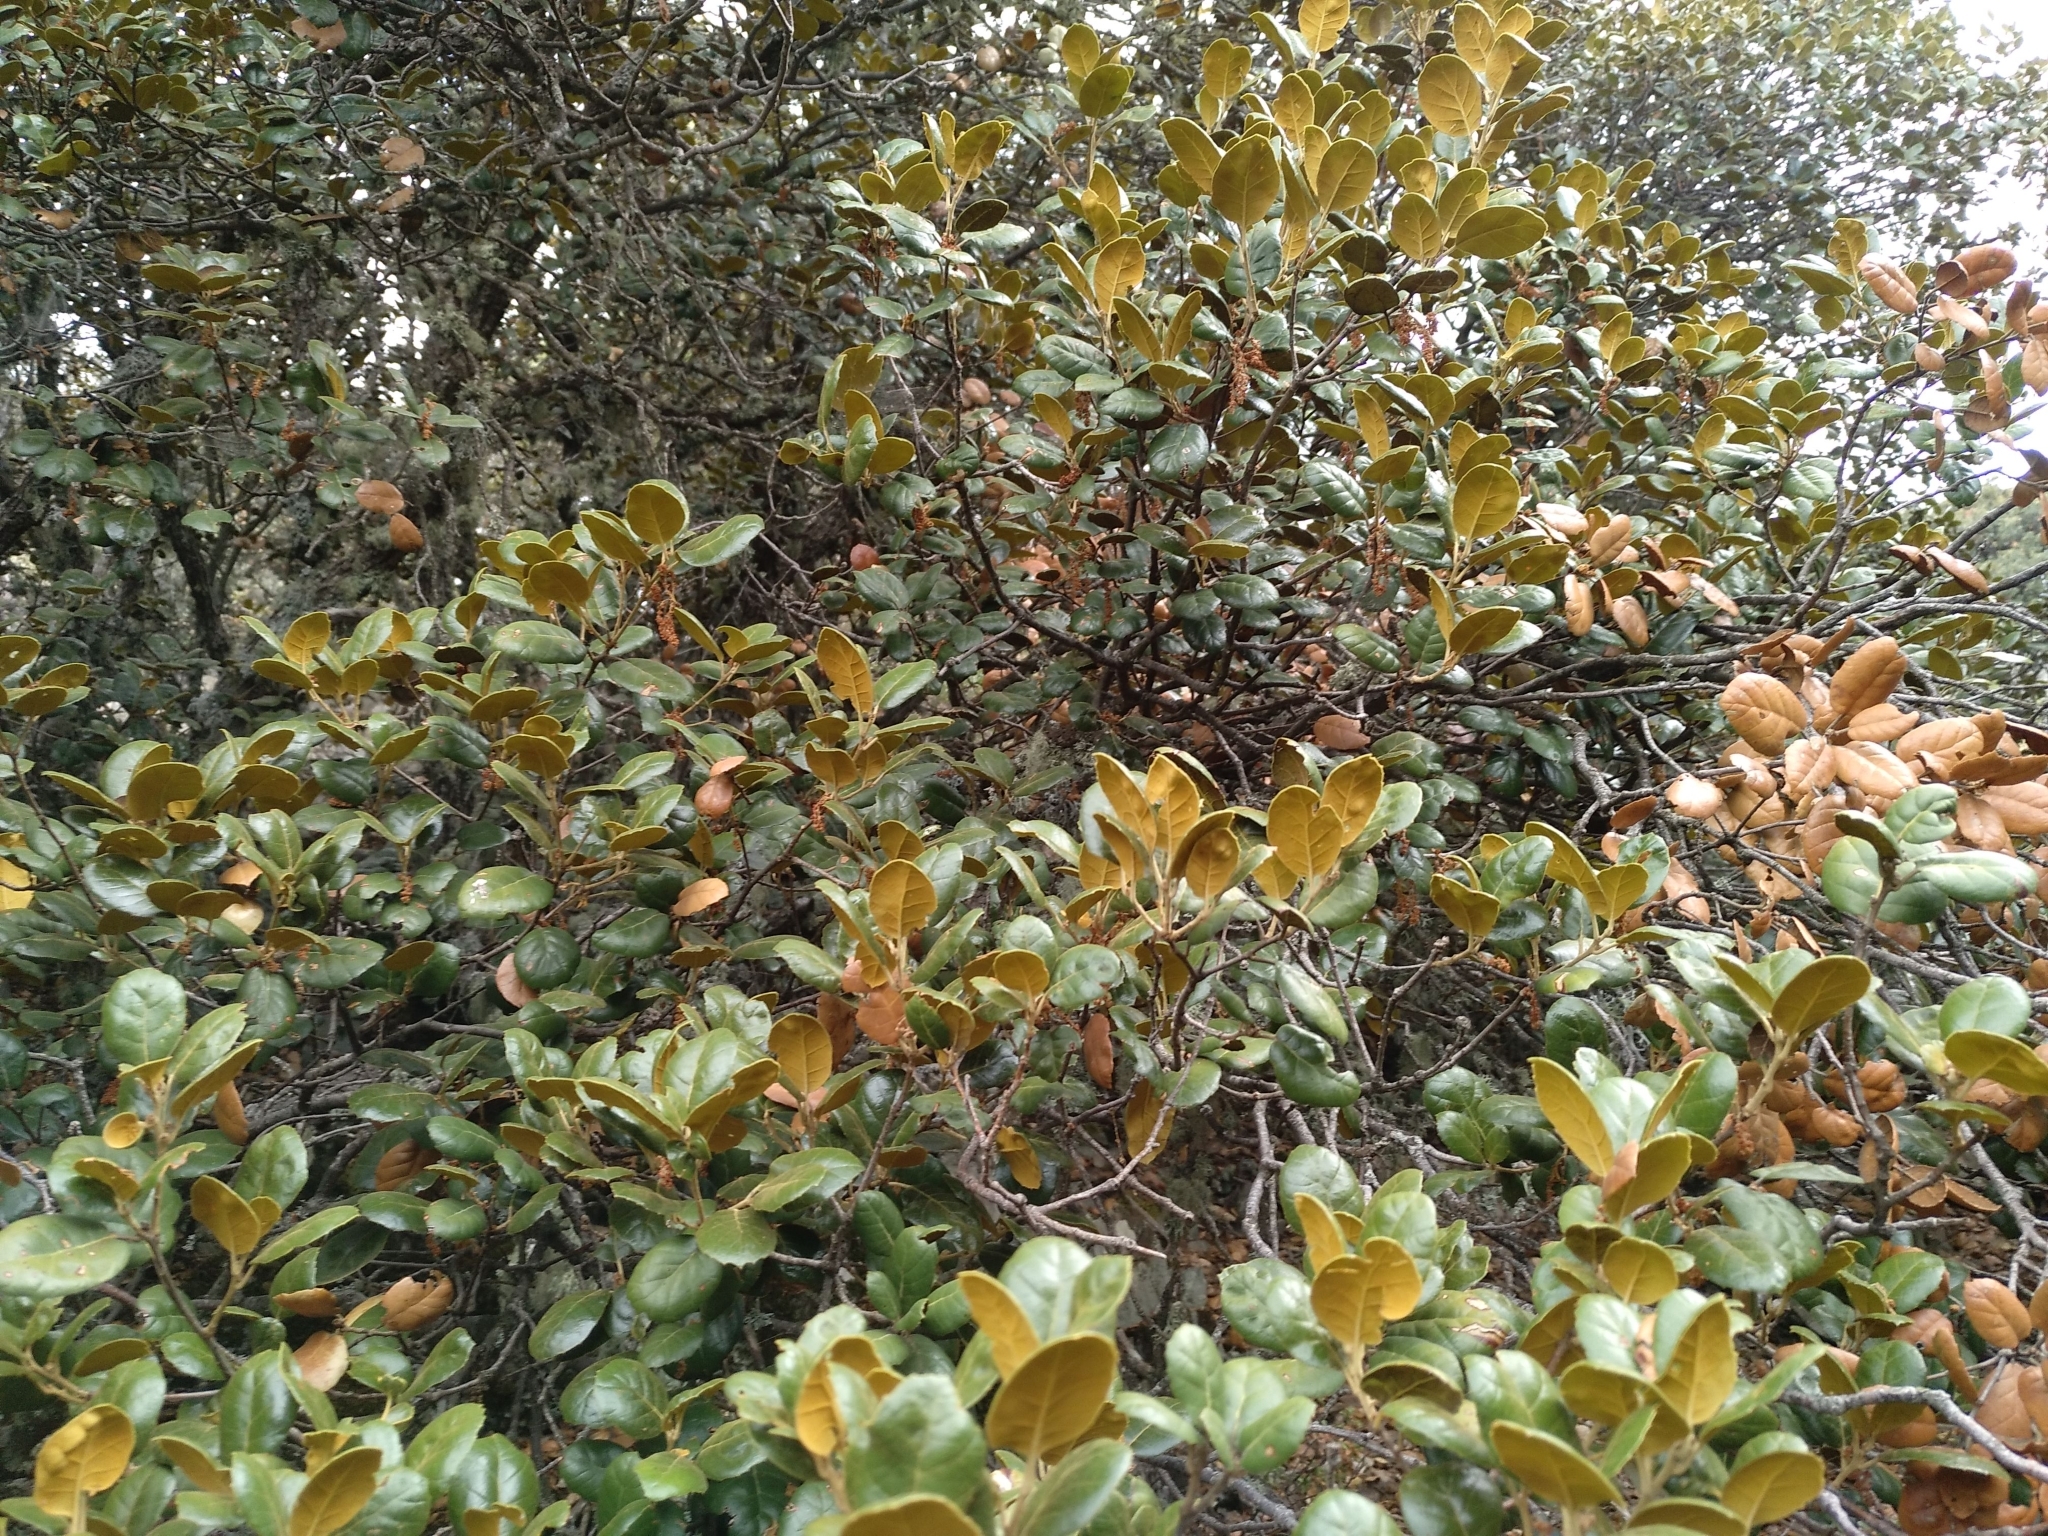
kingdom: Plantae
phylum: Tracheophyta
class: Magnoliopsida
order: Fagales
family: Fagaceae
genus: Quercus
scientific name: Quercus alnifolia
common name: Golden oak
